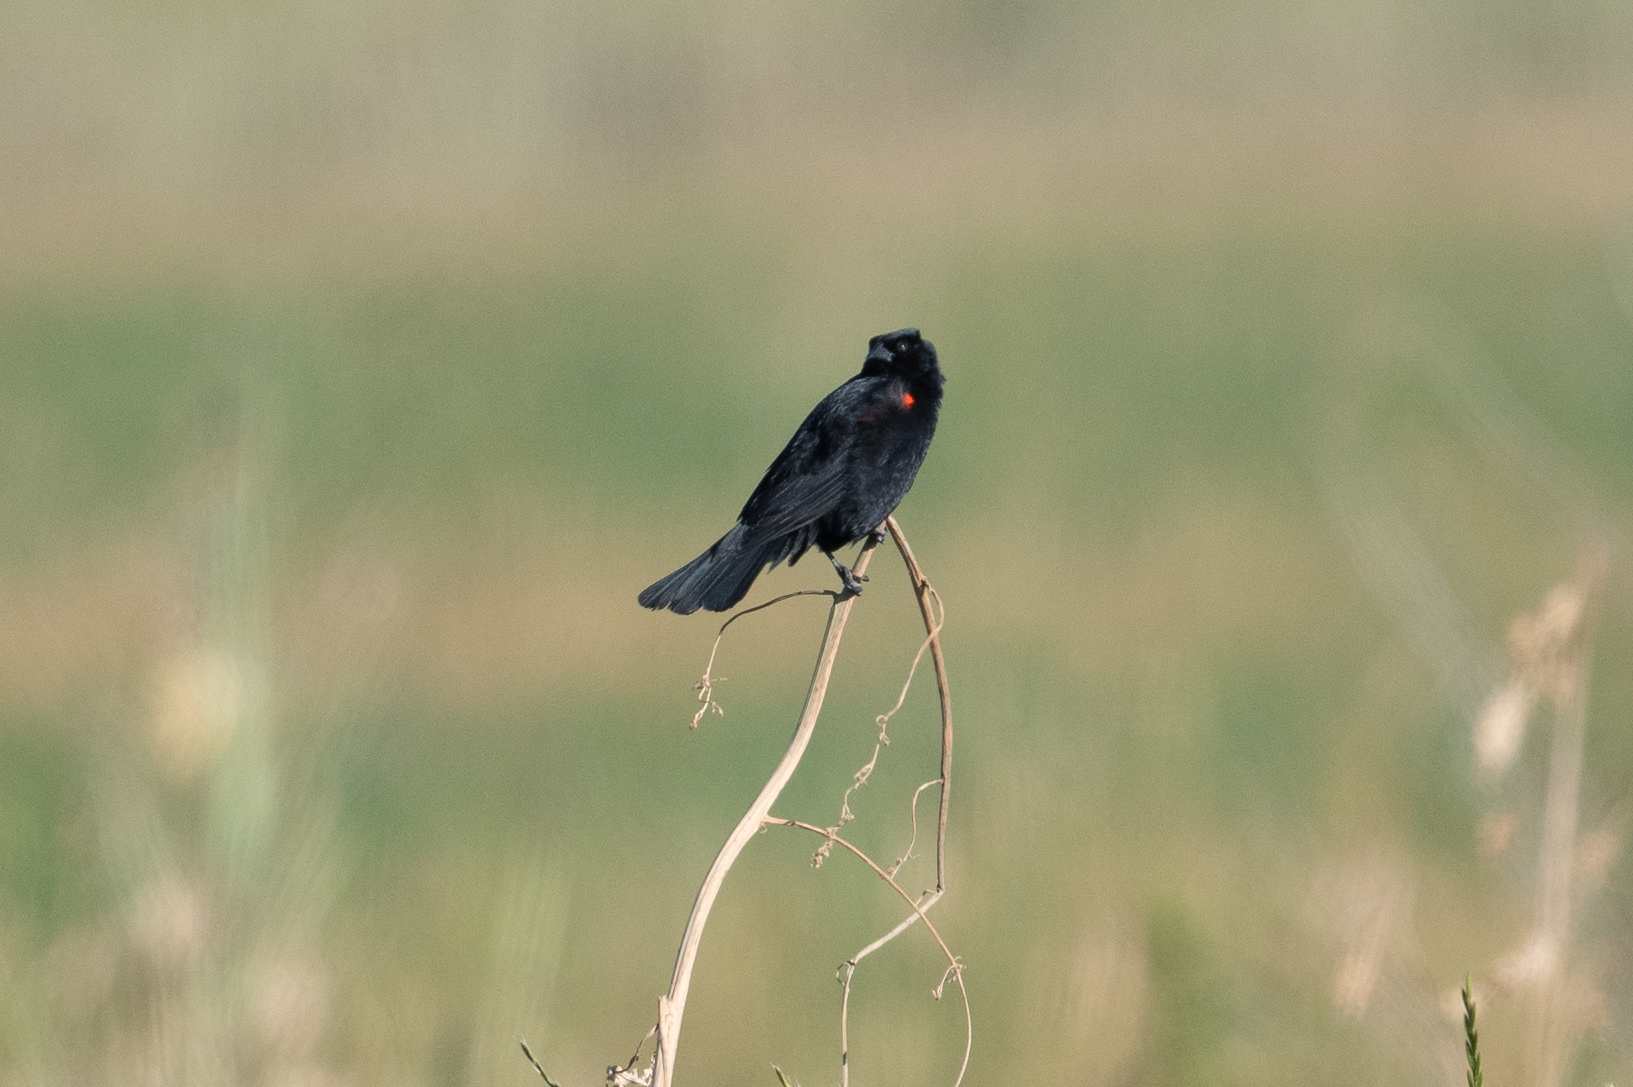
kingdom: Animalia
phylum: Chordata
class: Aves
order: Passeriformes
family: Icteridae
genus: Agelaius
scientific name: Agelaius phoeniceus
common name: Red-winged blackbird
